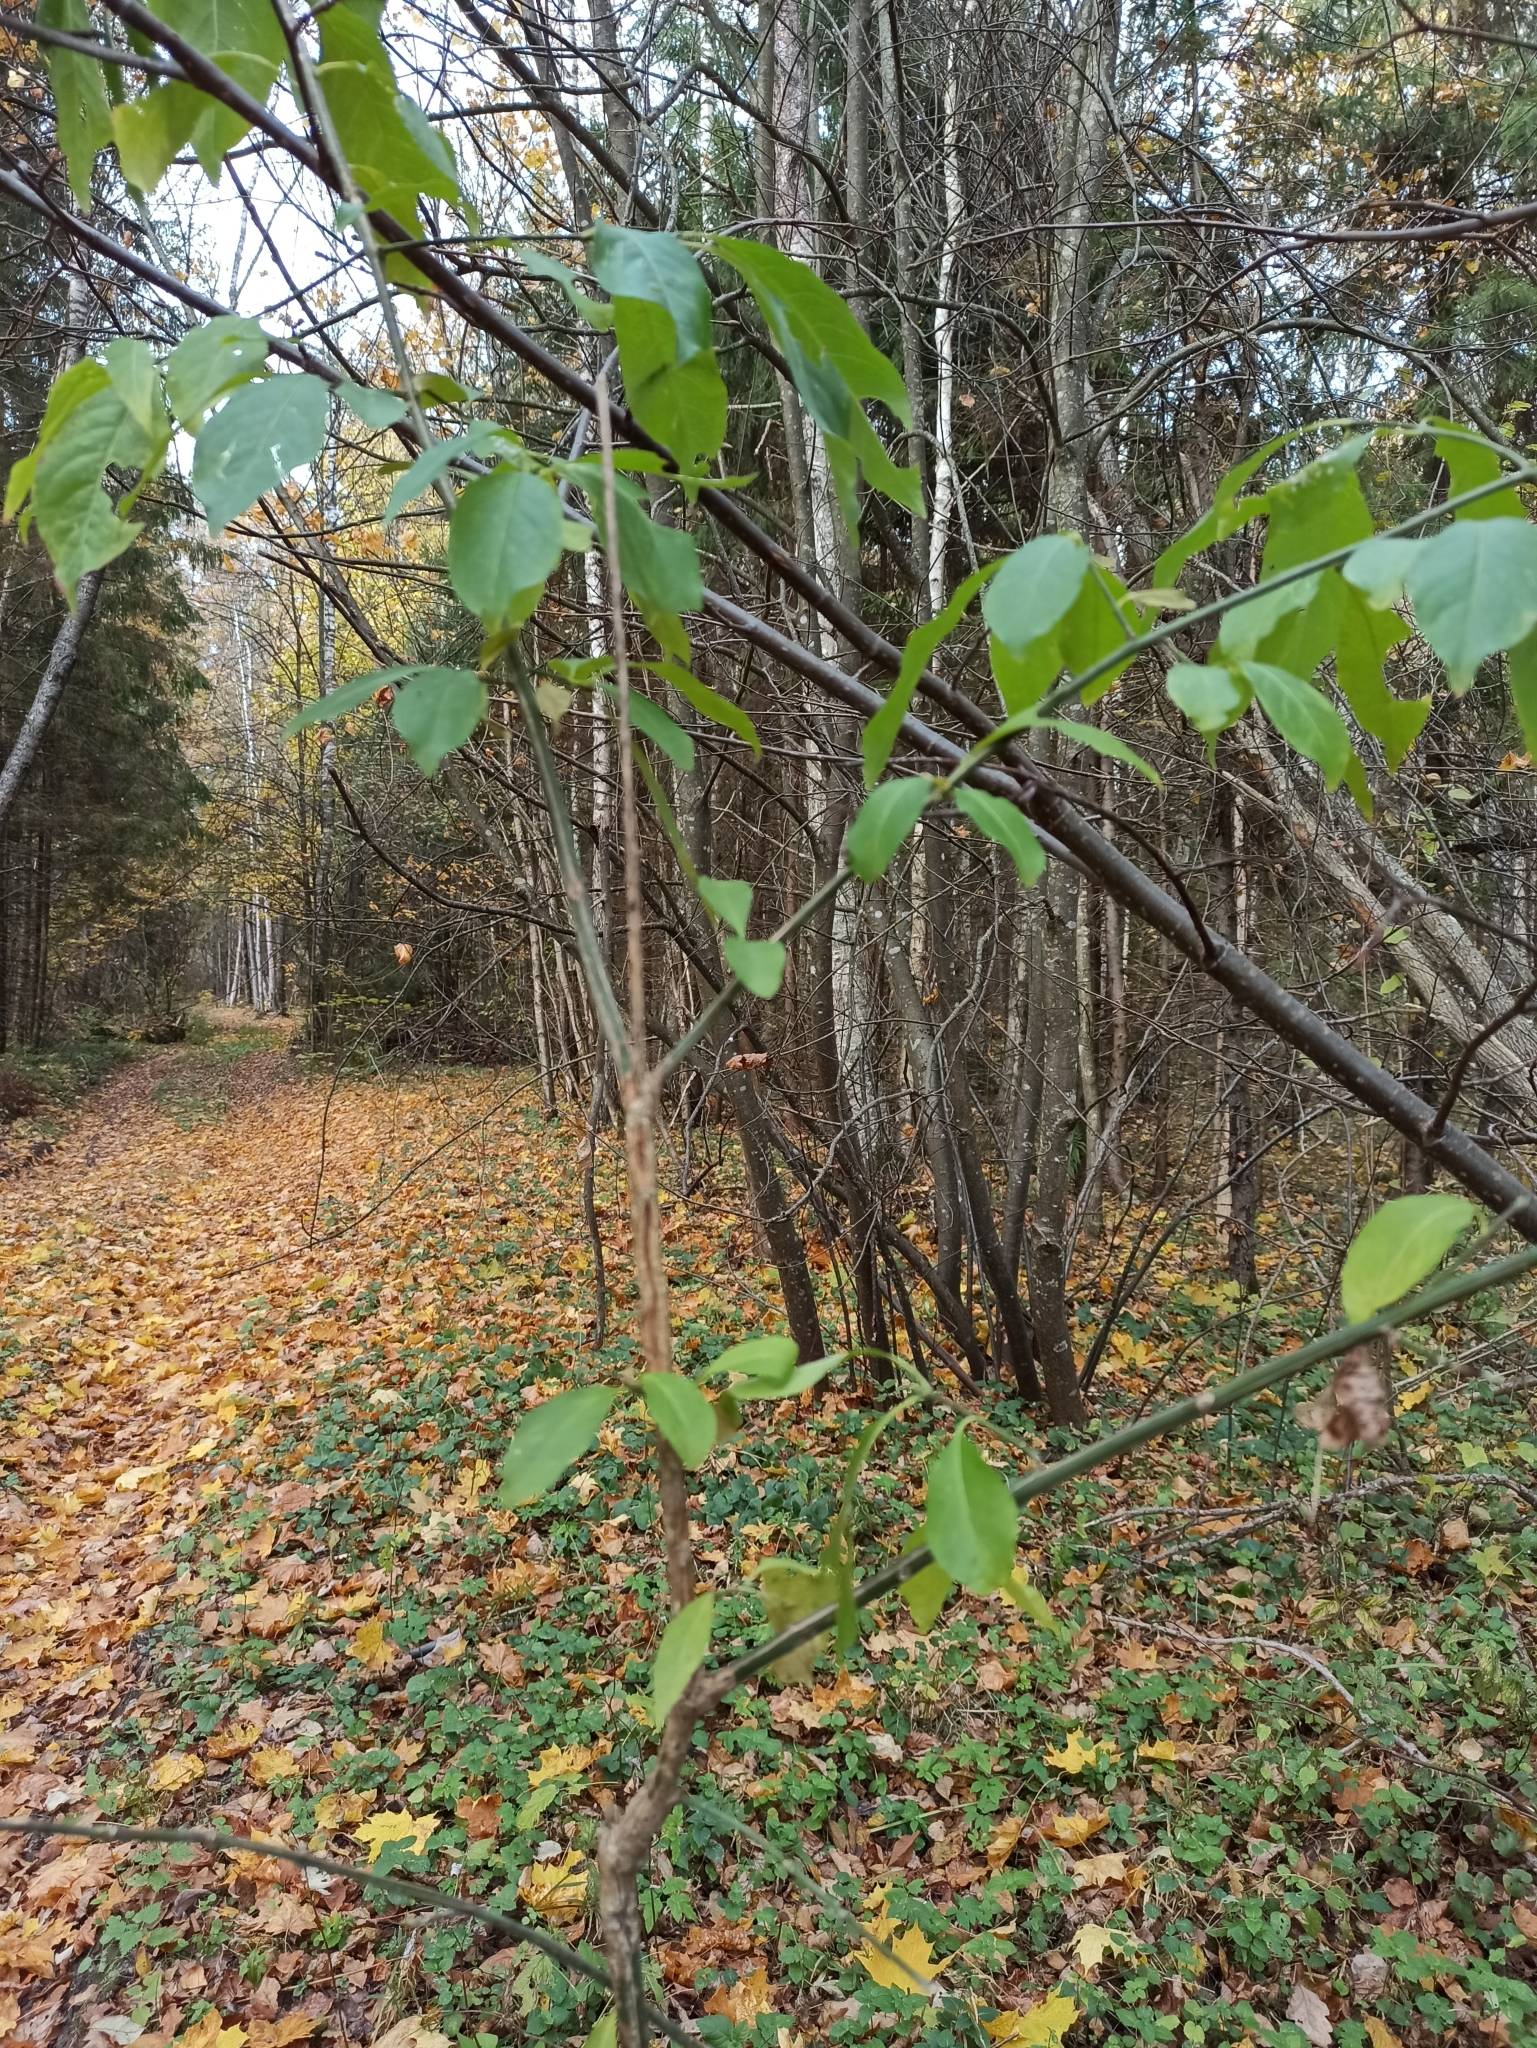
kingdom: Plantae
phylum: Tracheophyta
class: Magnoliopsida
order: Celastrales
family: Celastraceae
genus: Euonymus
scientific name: Euonymus europaeus
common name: Spindle
